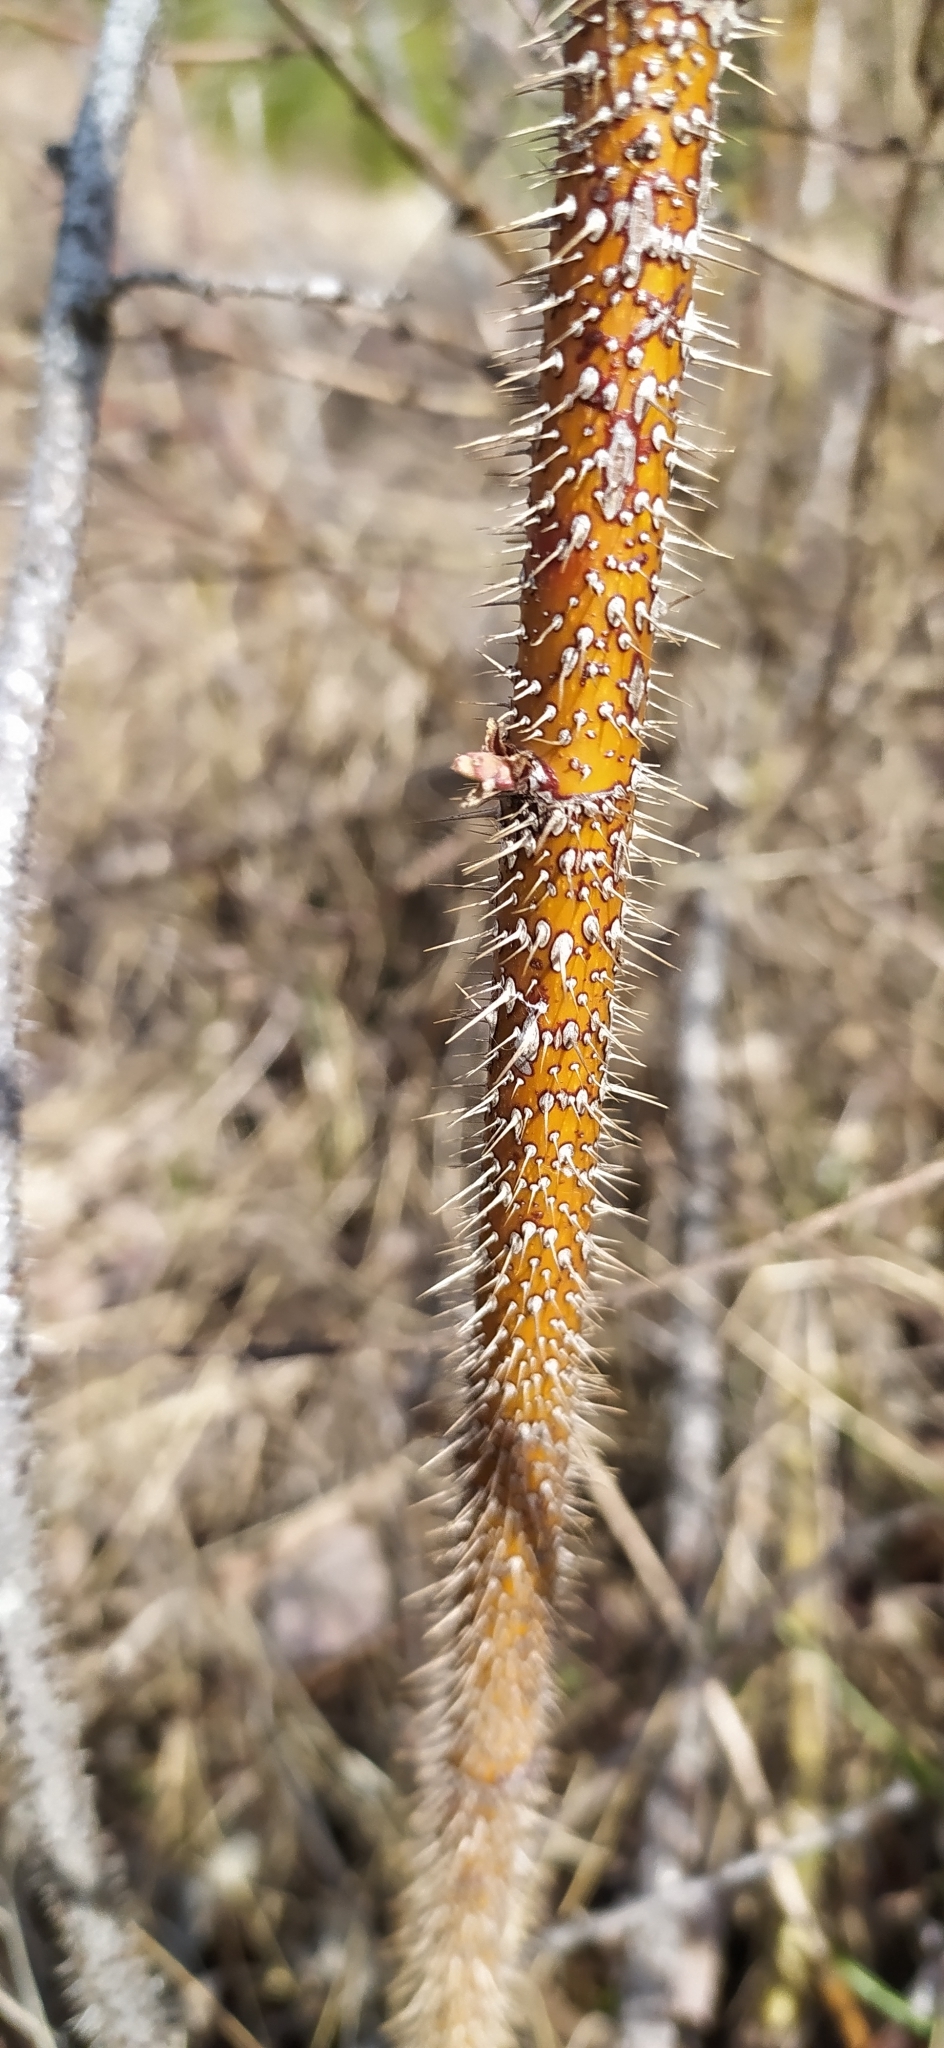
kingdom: Plantae
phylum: Tracheophyta
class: Magnoliopsida
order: Rosales
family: Rosaceae
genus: Rosa
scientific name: Rosa acicularis
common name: Prickly rose
